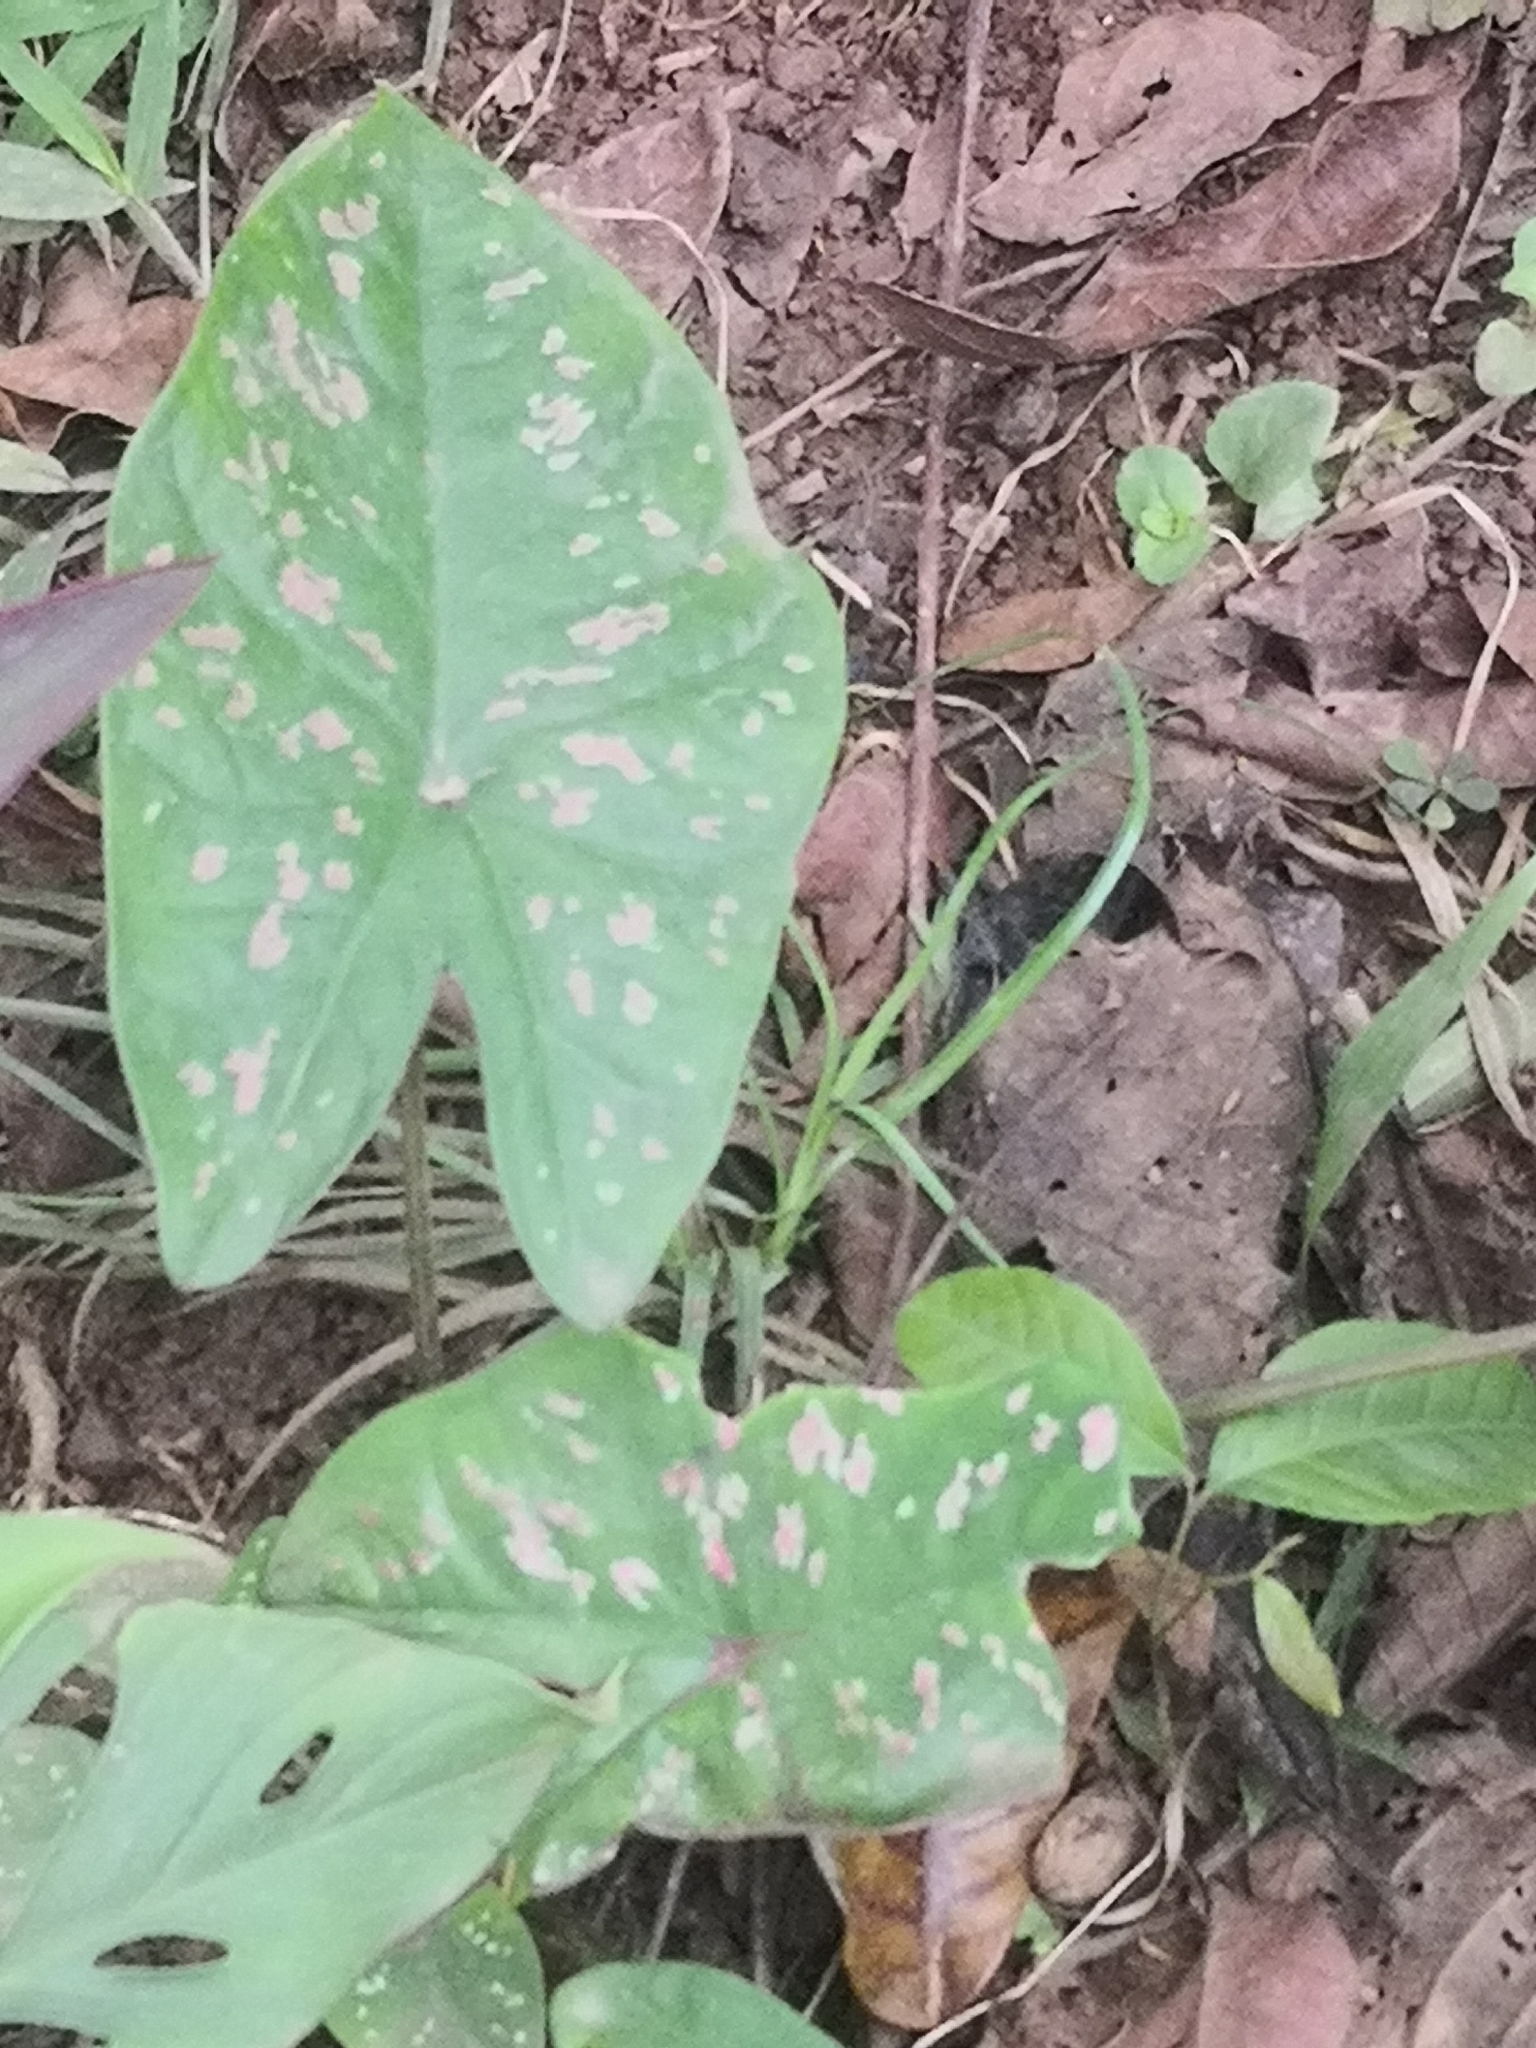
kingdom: Plantae
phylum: Tracheophyta
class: Liliopsida
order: Alismatales
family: Araceae
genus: Caladium
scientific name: Caladium bicolor
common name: Artist's pallet
